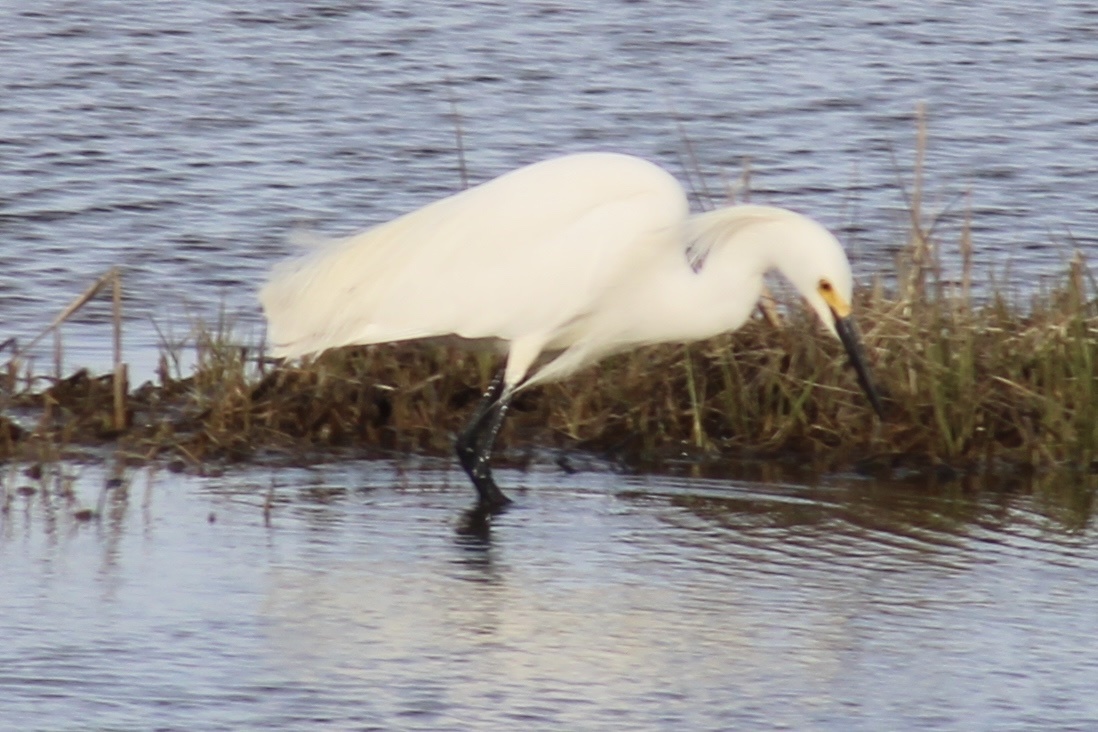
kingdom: Animalia
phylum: Chordata
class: Aves
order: Pelecaniformes
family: Ardeidae
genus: Egretta
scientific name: Egretta thula
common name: Snowy egret
